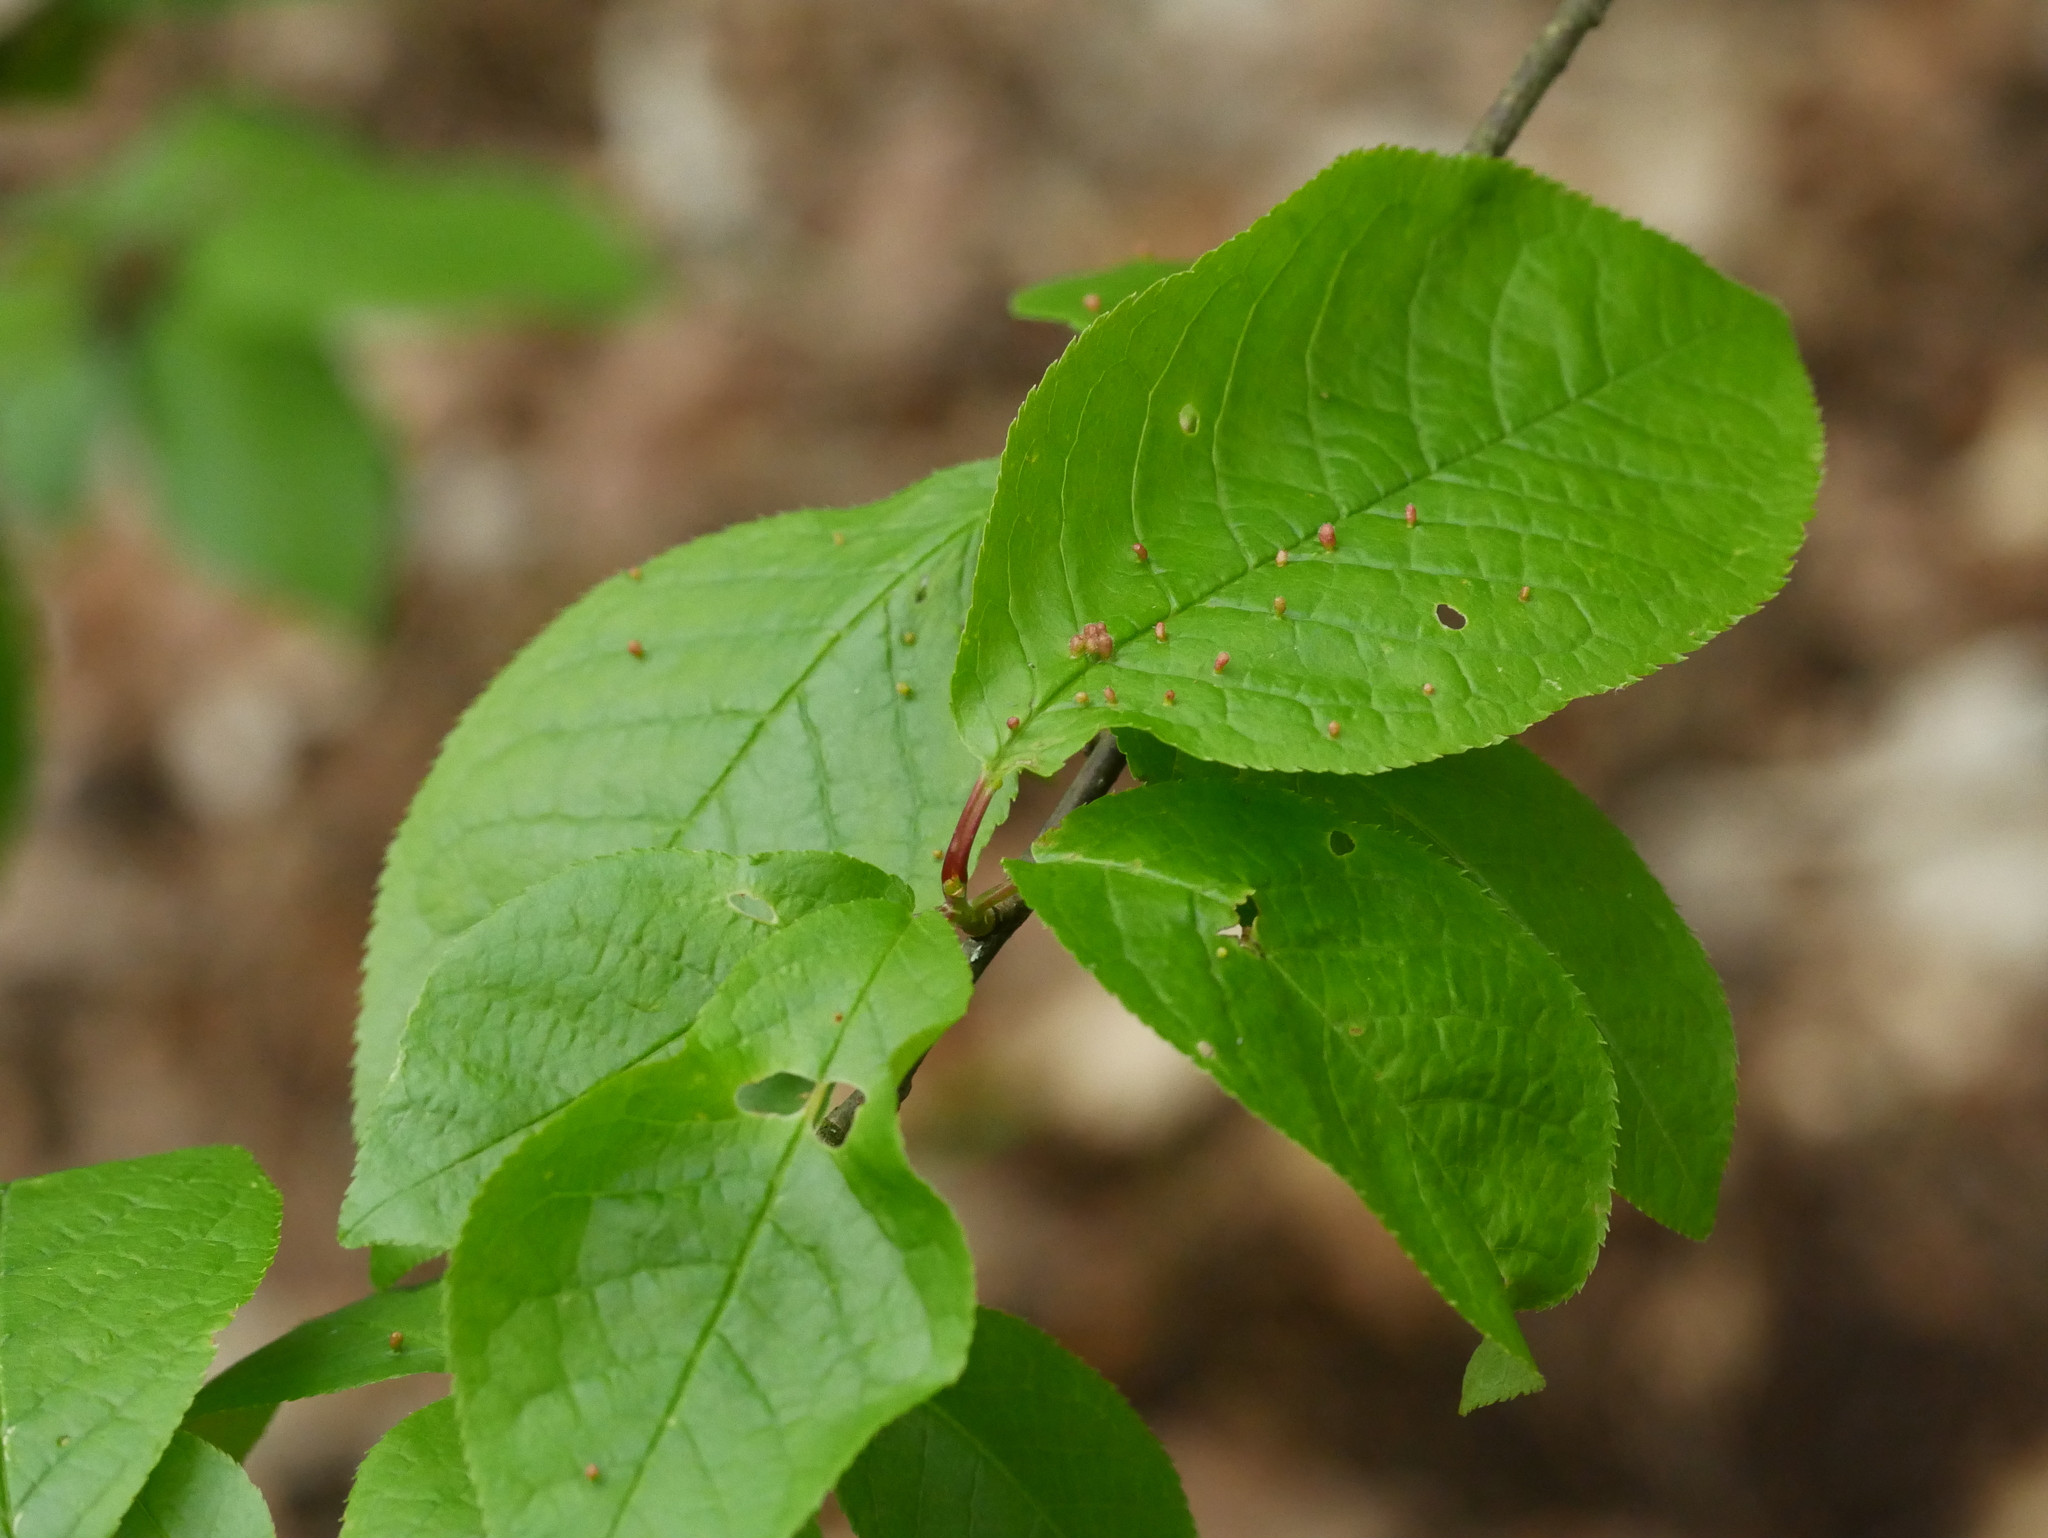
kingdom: Plantae
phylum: Tracheophyta
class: Magnoliopsida
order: Rosales
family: Rosaceae
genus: Prunus
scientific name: Prunus padus
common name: Bird cherry
